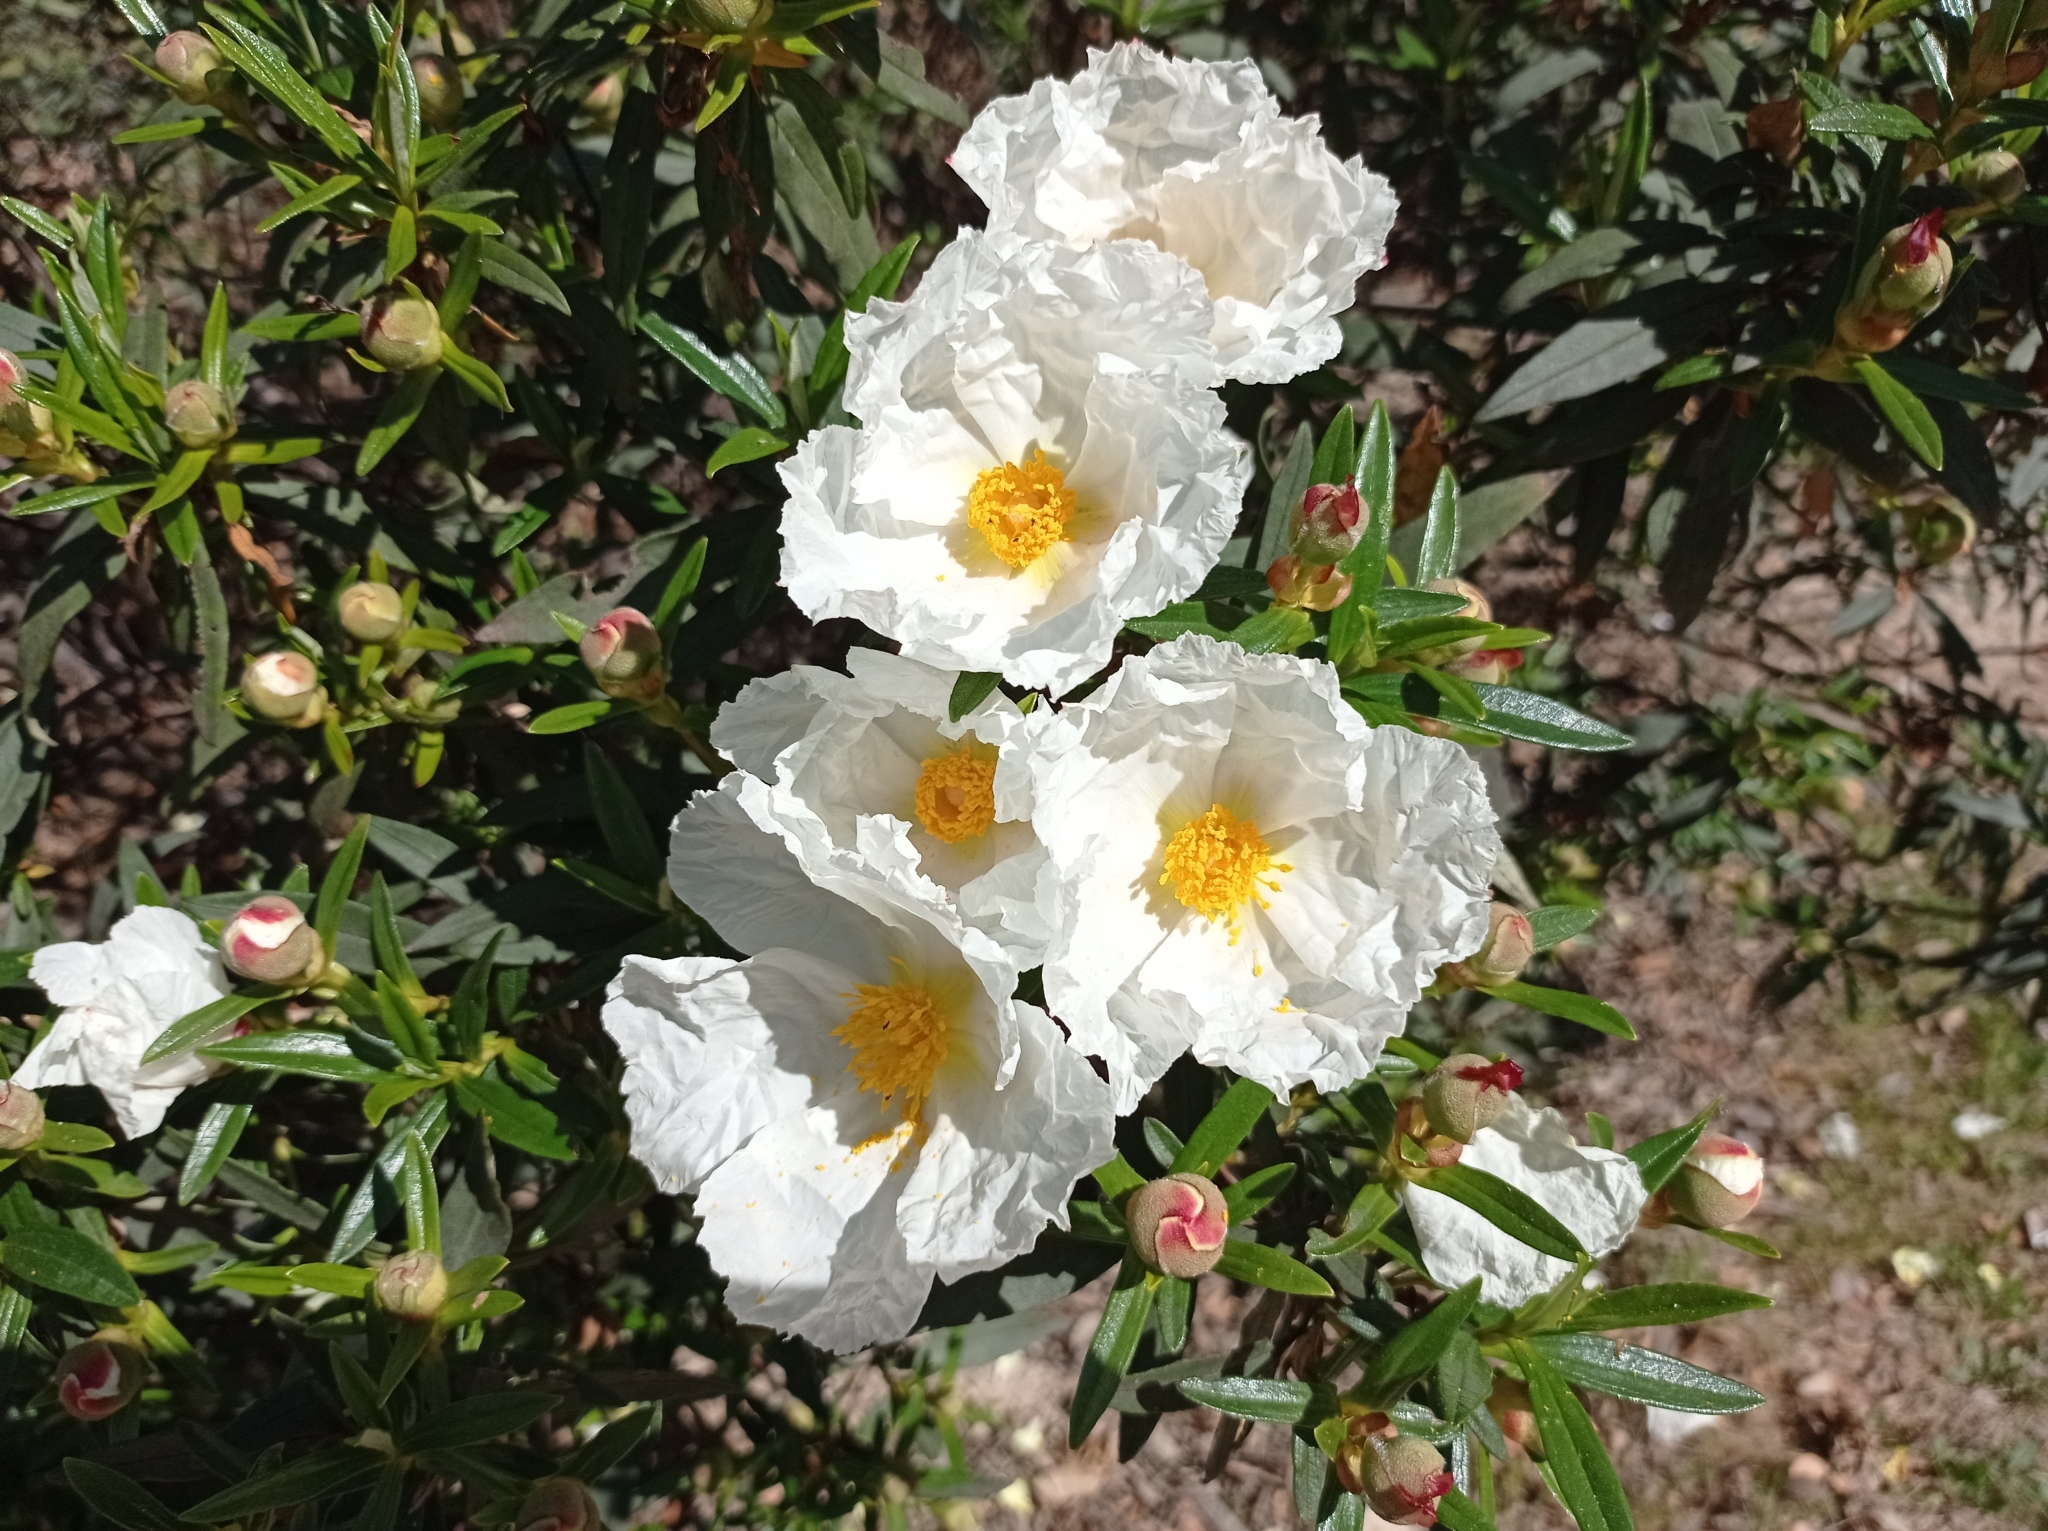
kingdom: Plantae
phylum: Tracheophyta
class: Magnoliopsida
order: Malvales
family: Cistaceae
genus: Cistus
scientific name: Cistus ladanifer
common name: Common gum cistus
